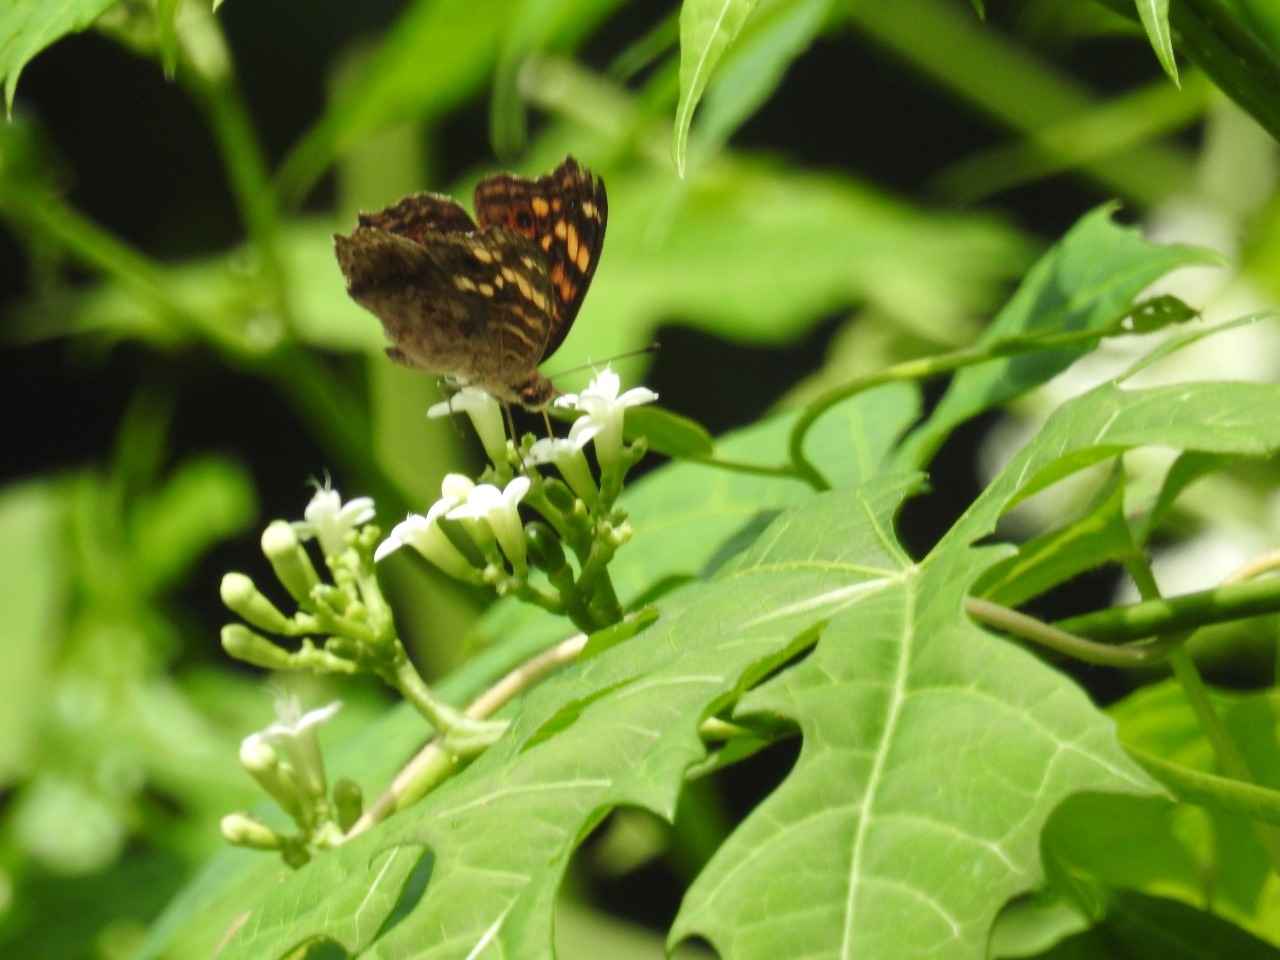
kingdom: Animalia
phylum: Arthropoda
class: Insecta
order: Lepidoptera
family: Nymphalidae
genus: Junonia
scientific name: Junonia erigone
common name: Northern argus
